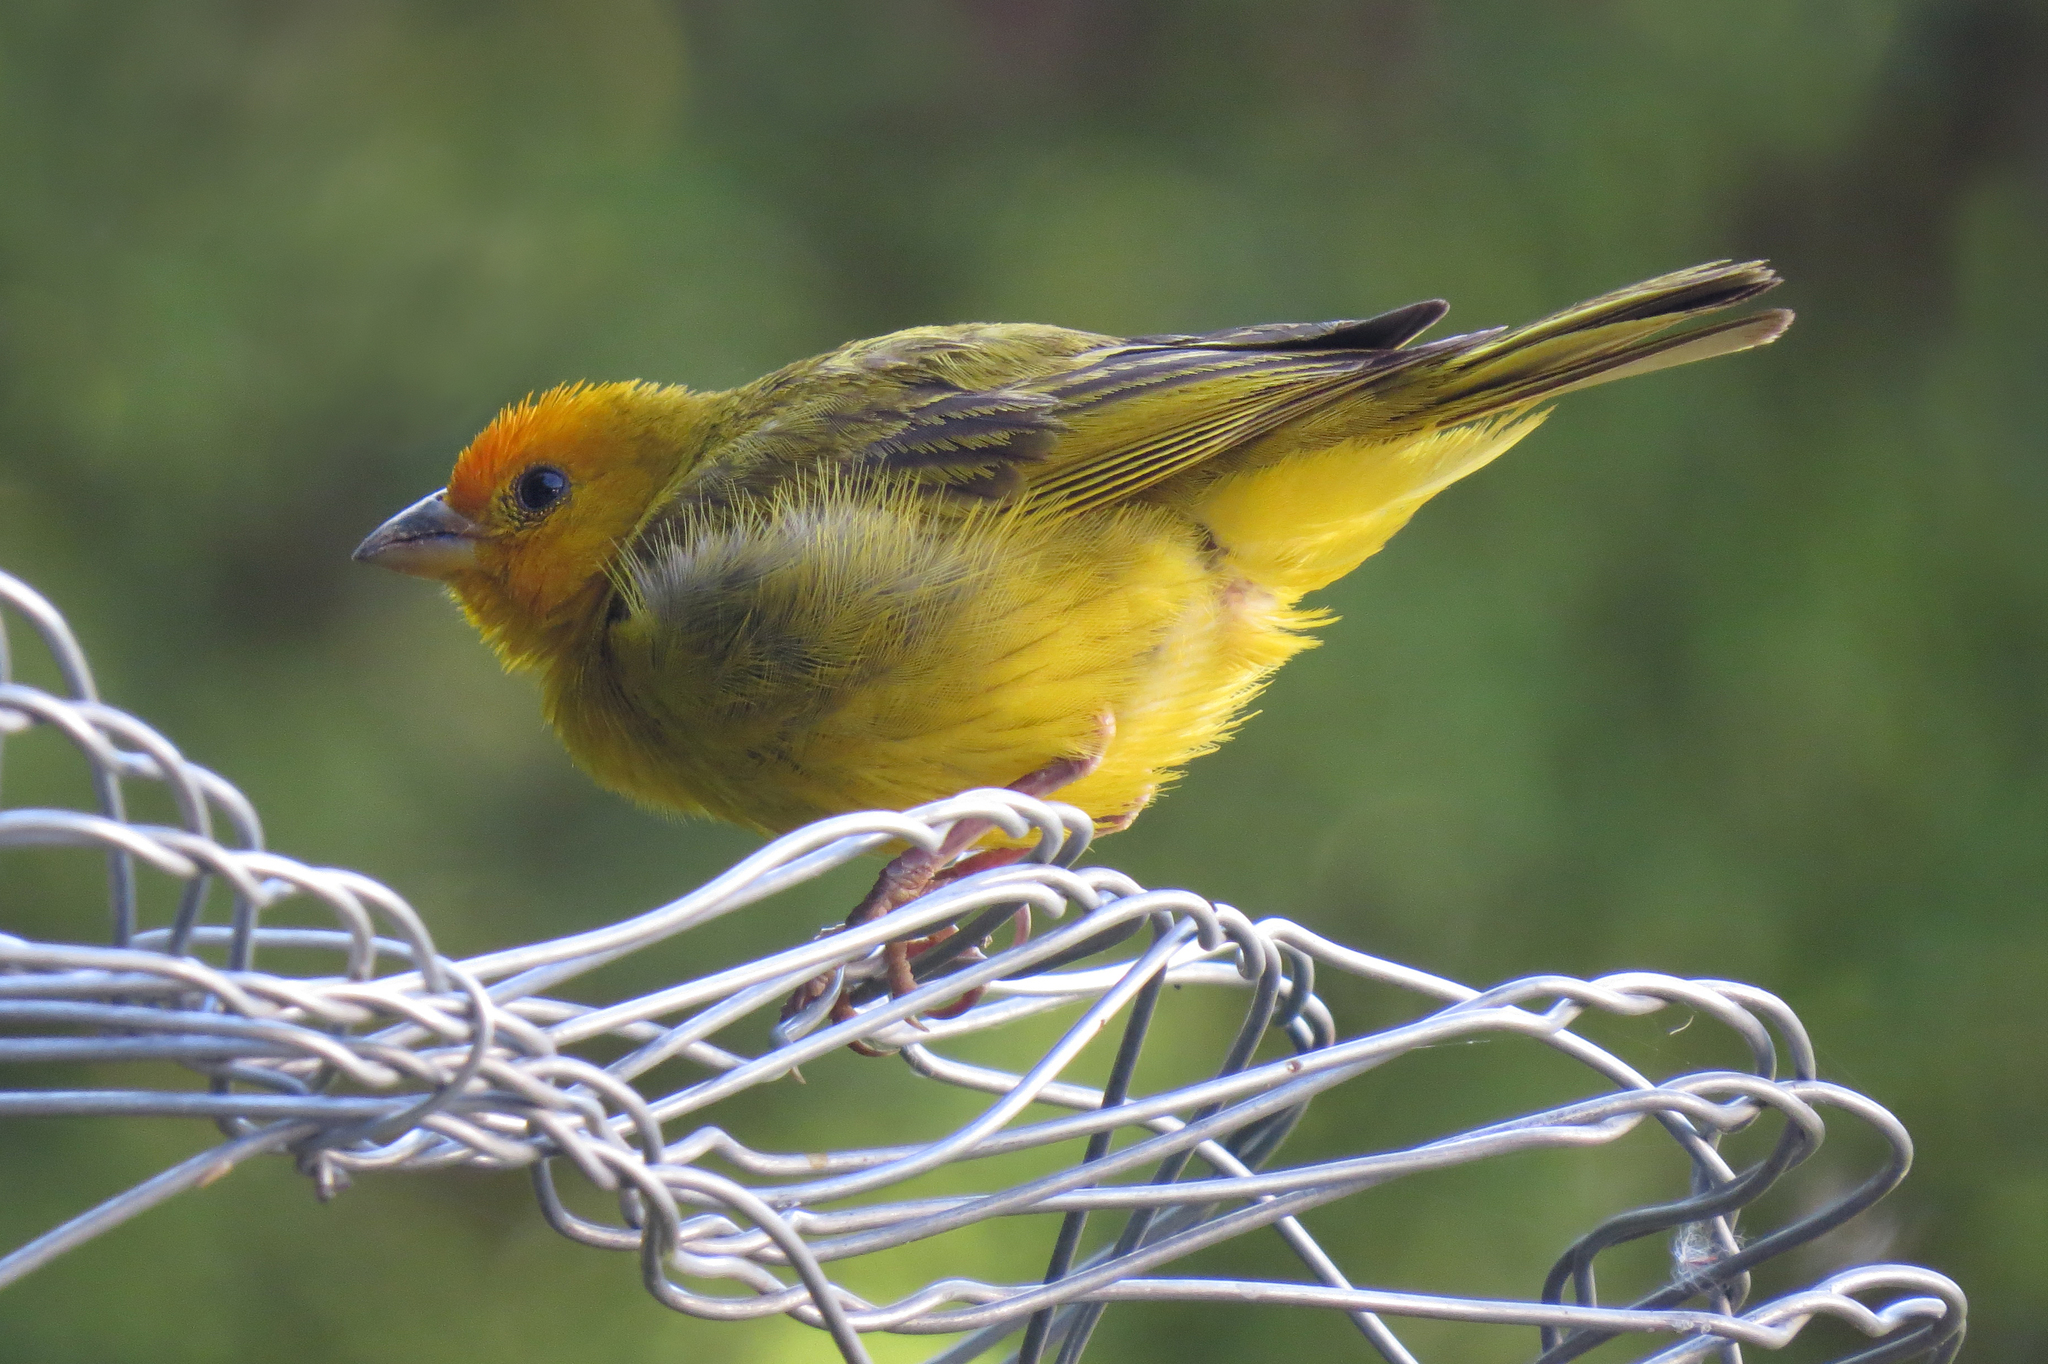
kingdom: Animalia
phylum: Chordata
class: Aves
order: Passeriformes
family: Thraupidae
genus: Sicalis
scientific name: Sicalis flaveola
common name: Saffron finch
